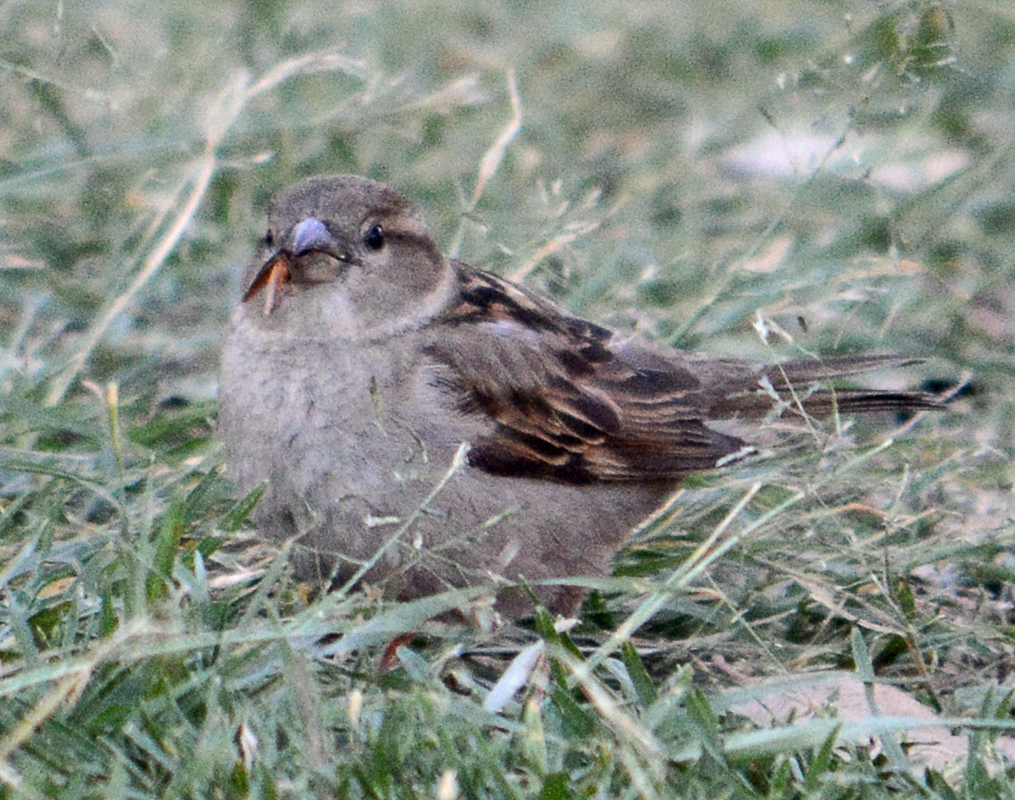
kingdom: Animalia
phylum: Chordata
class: Aves
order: Passeriformes
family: Passeridae
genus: Passer
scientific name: Passer domesticus
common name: House sparrow
